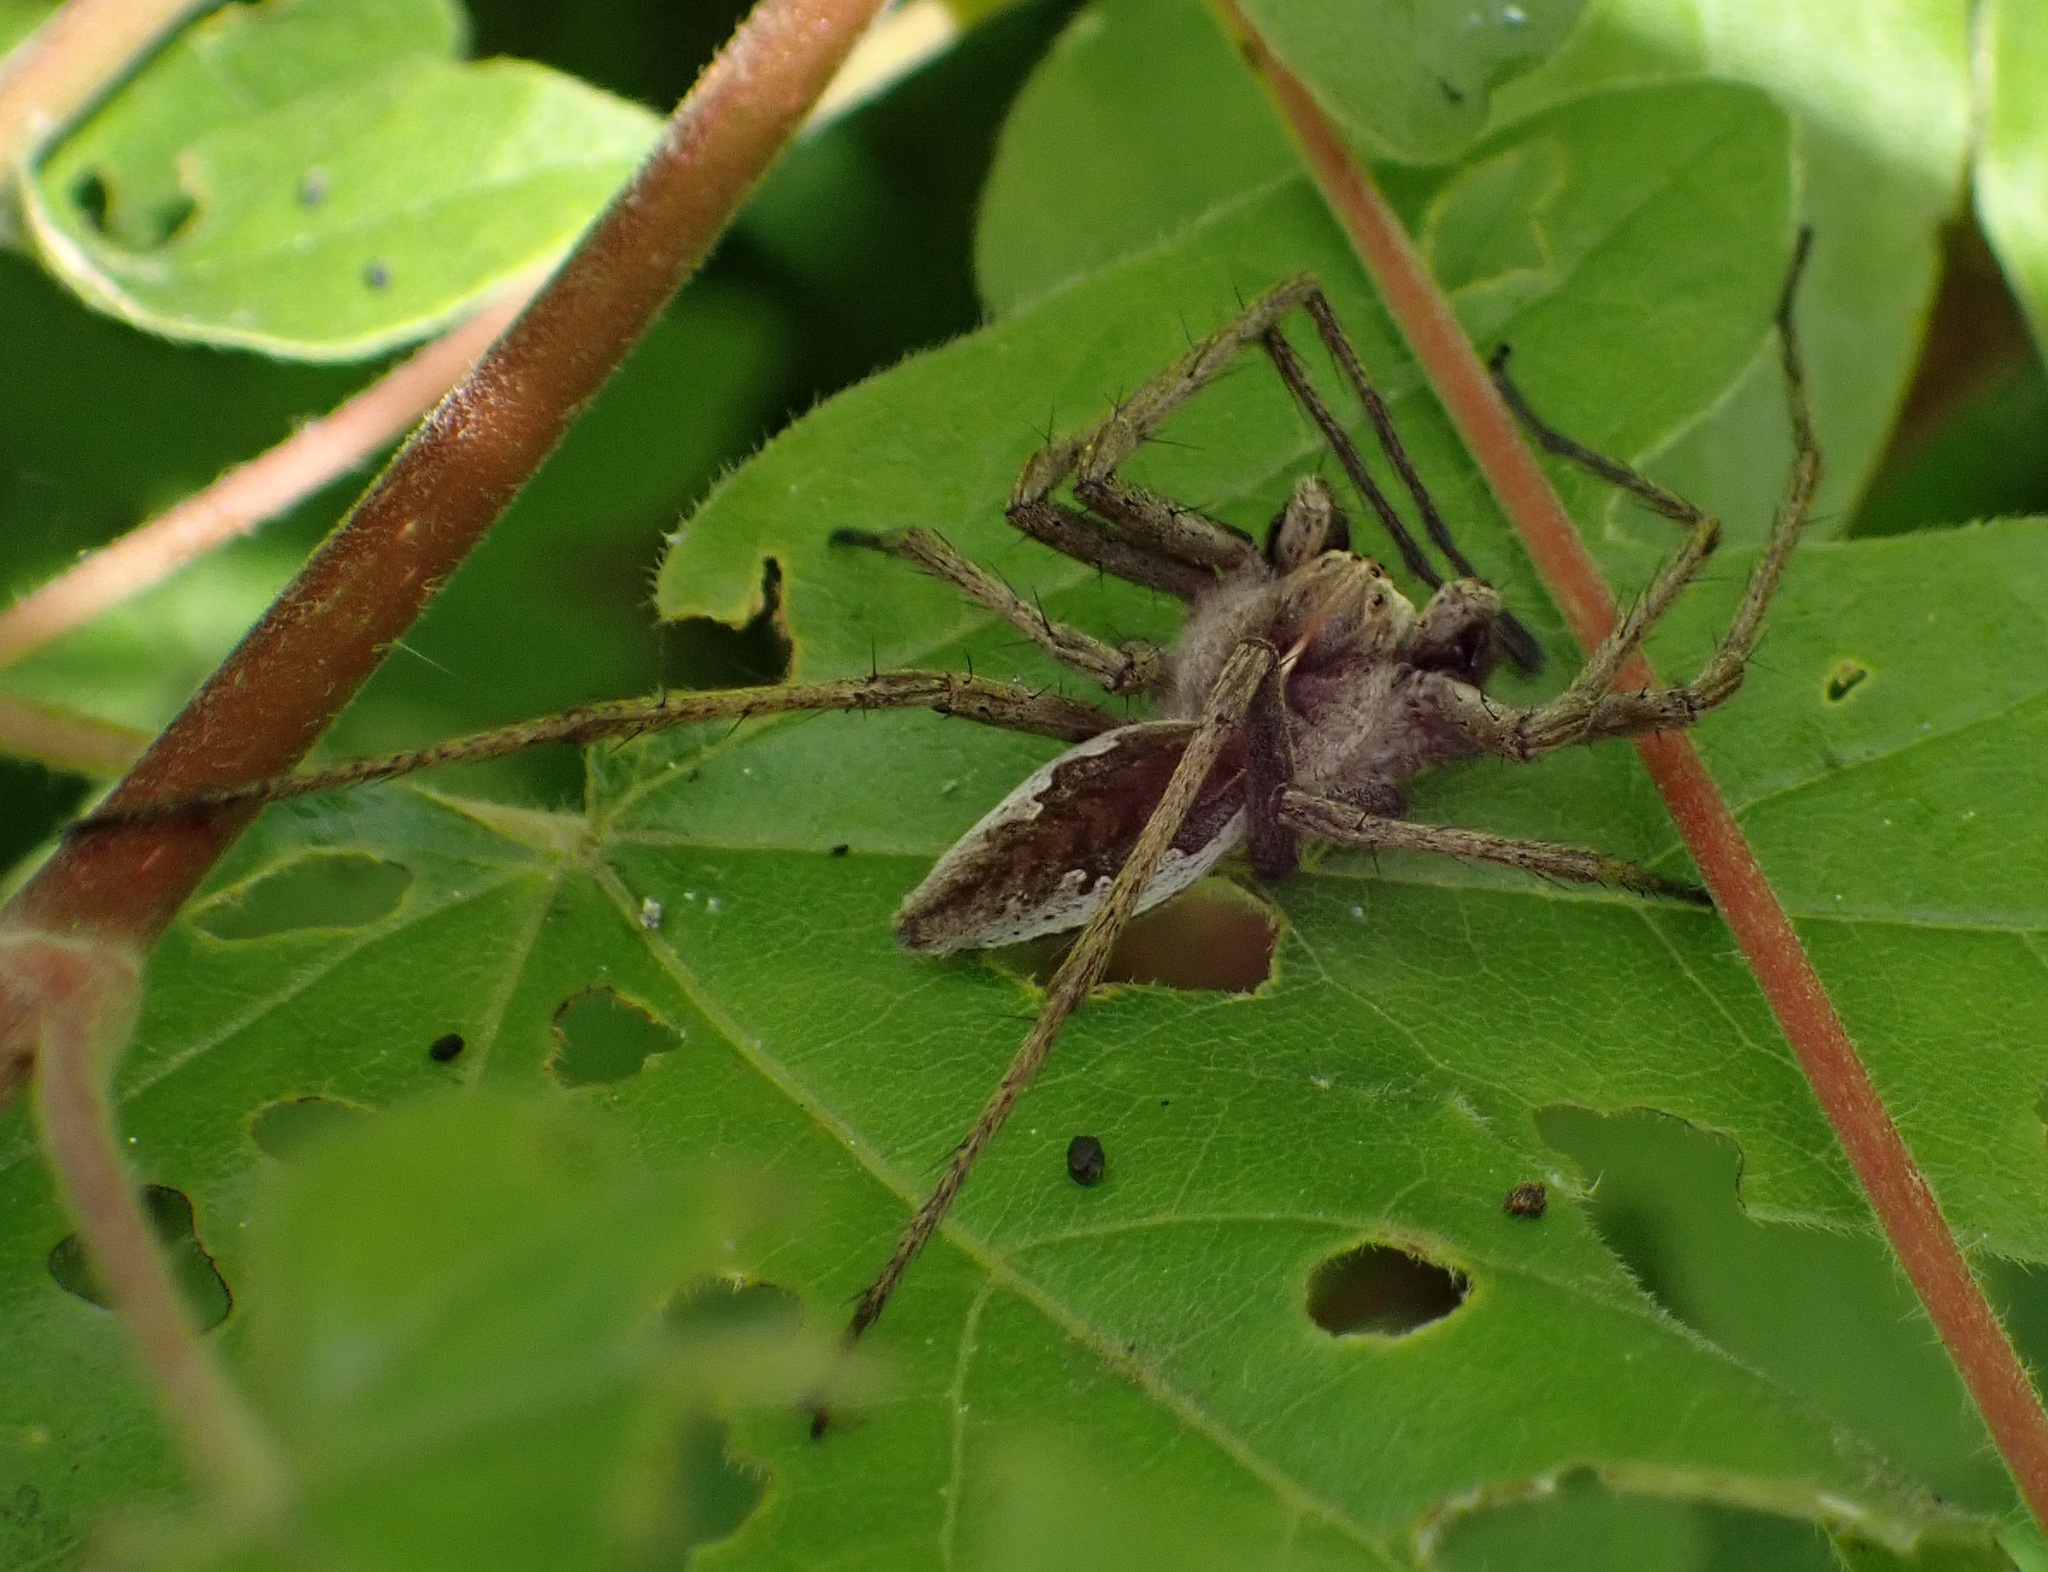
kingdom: Animalia
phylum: Arthropoda
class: Arachnida
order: Araneae
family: Pisauridae
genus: Pisaura
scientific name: Pisaura mirabilis
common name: Tent spider
